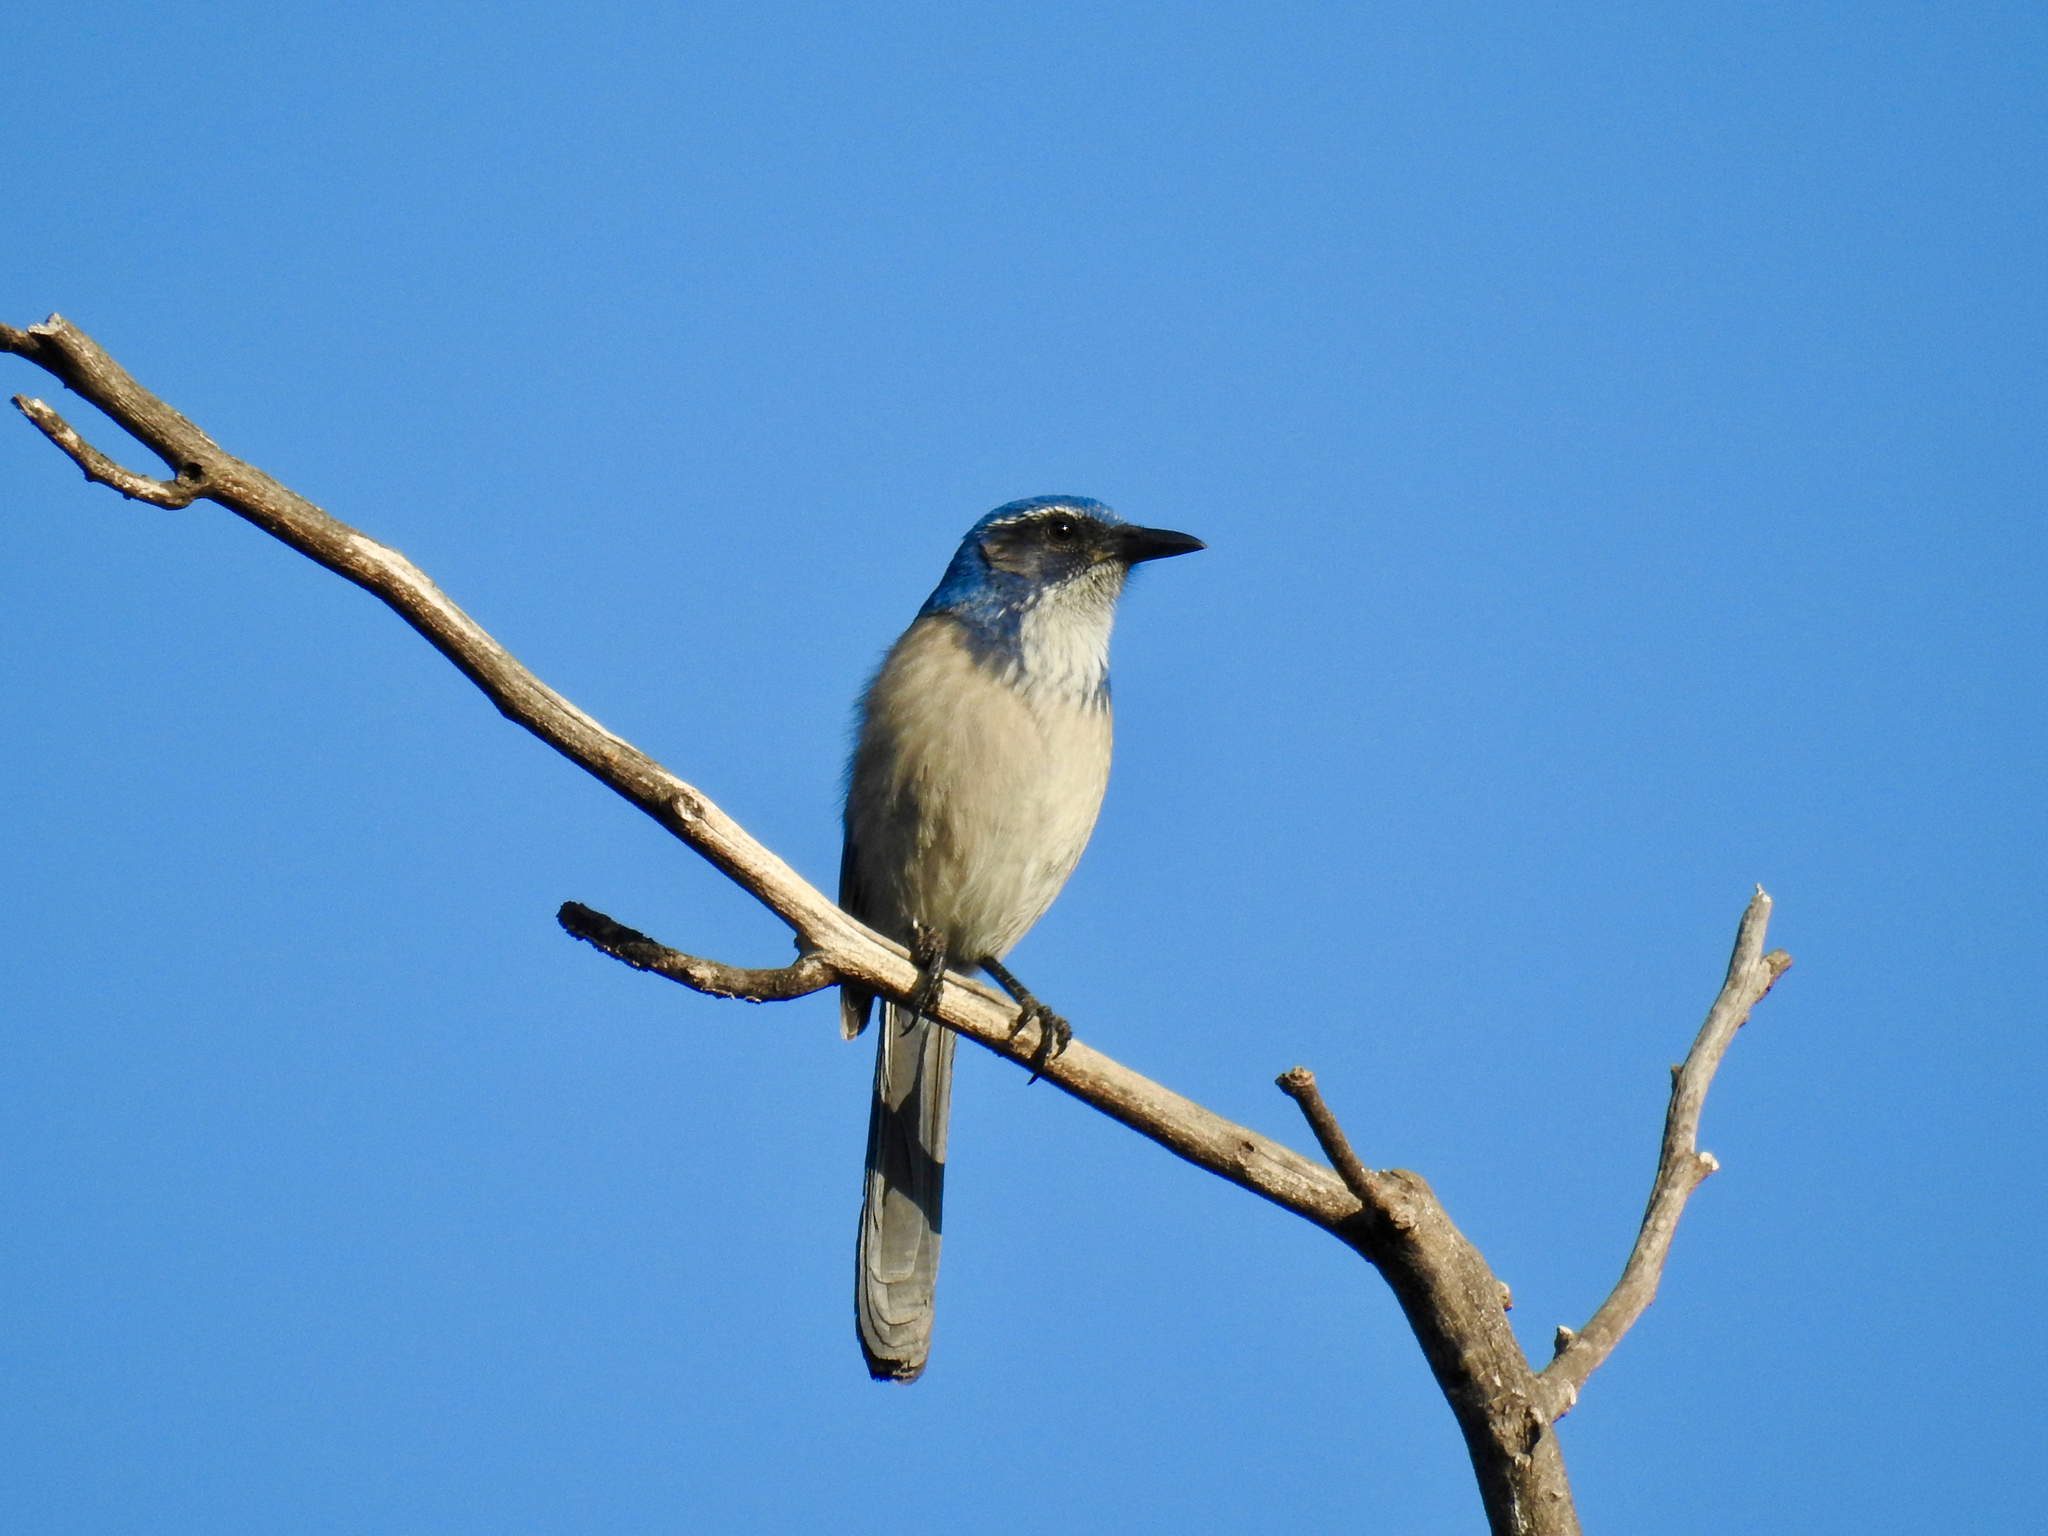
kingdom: Animalia
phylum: Chordata
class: Aves
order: Passeriformes
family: Corvidae
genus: Aphelocoma
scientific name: Aphelocoma californica
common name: California scrub-jay
